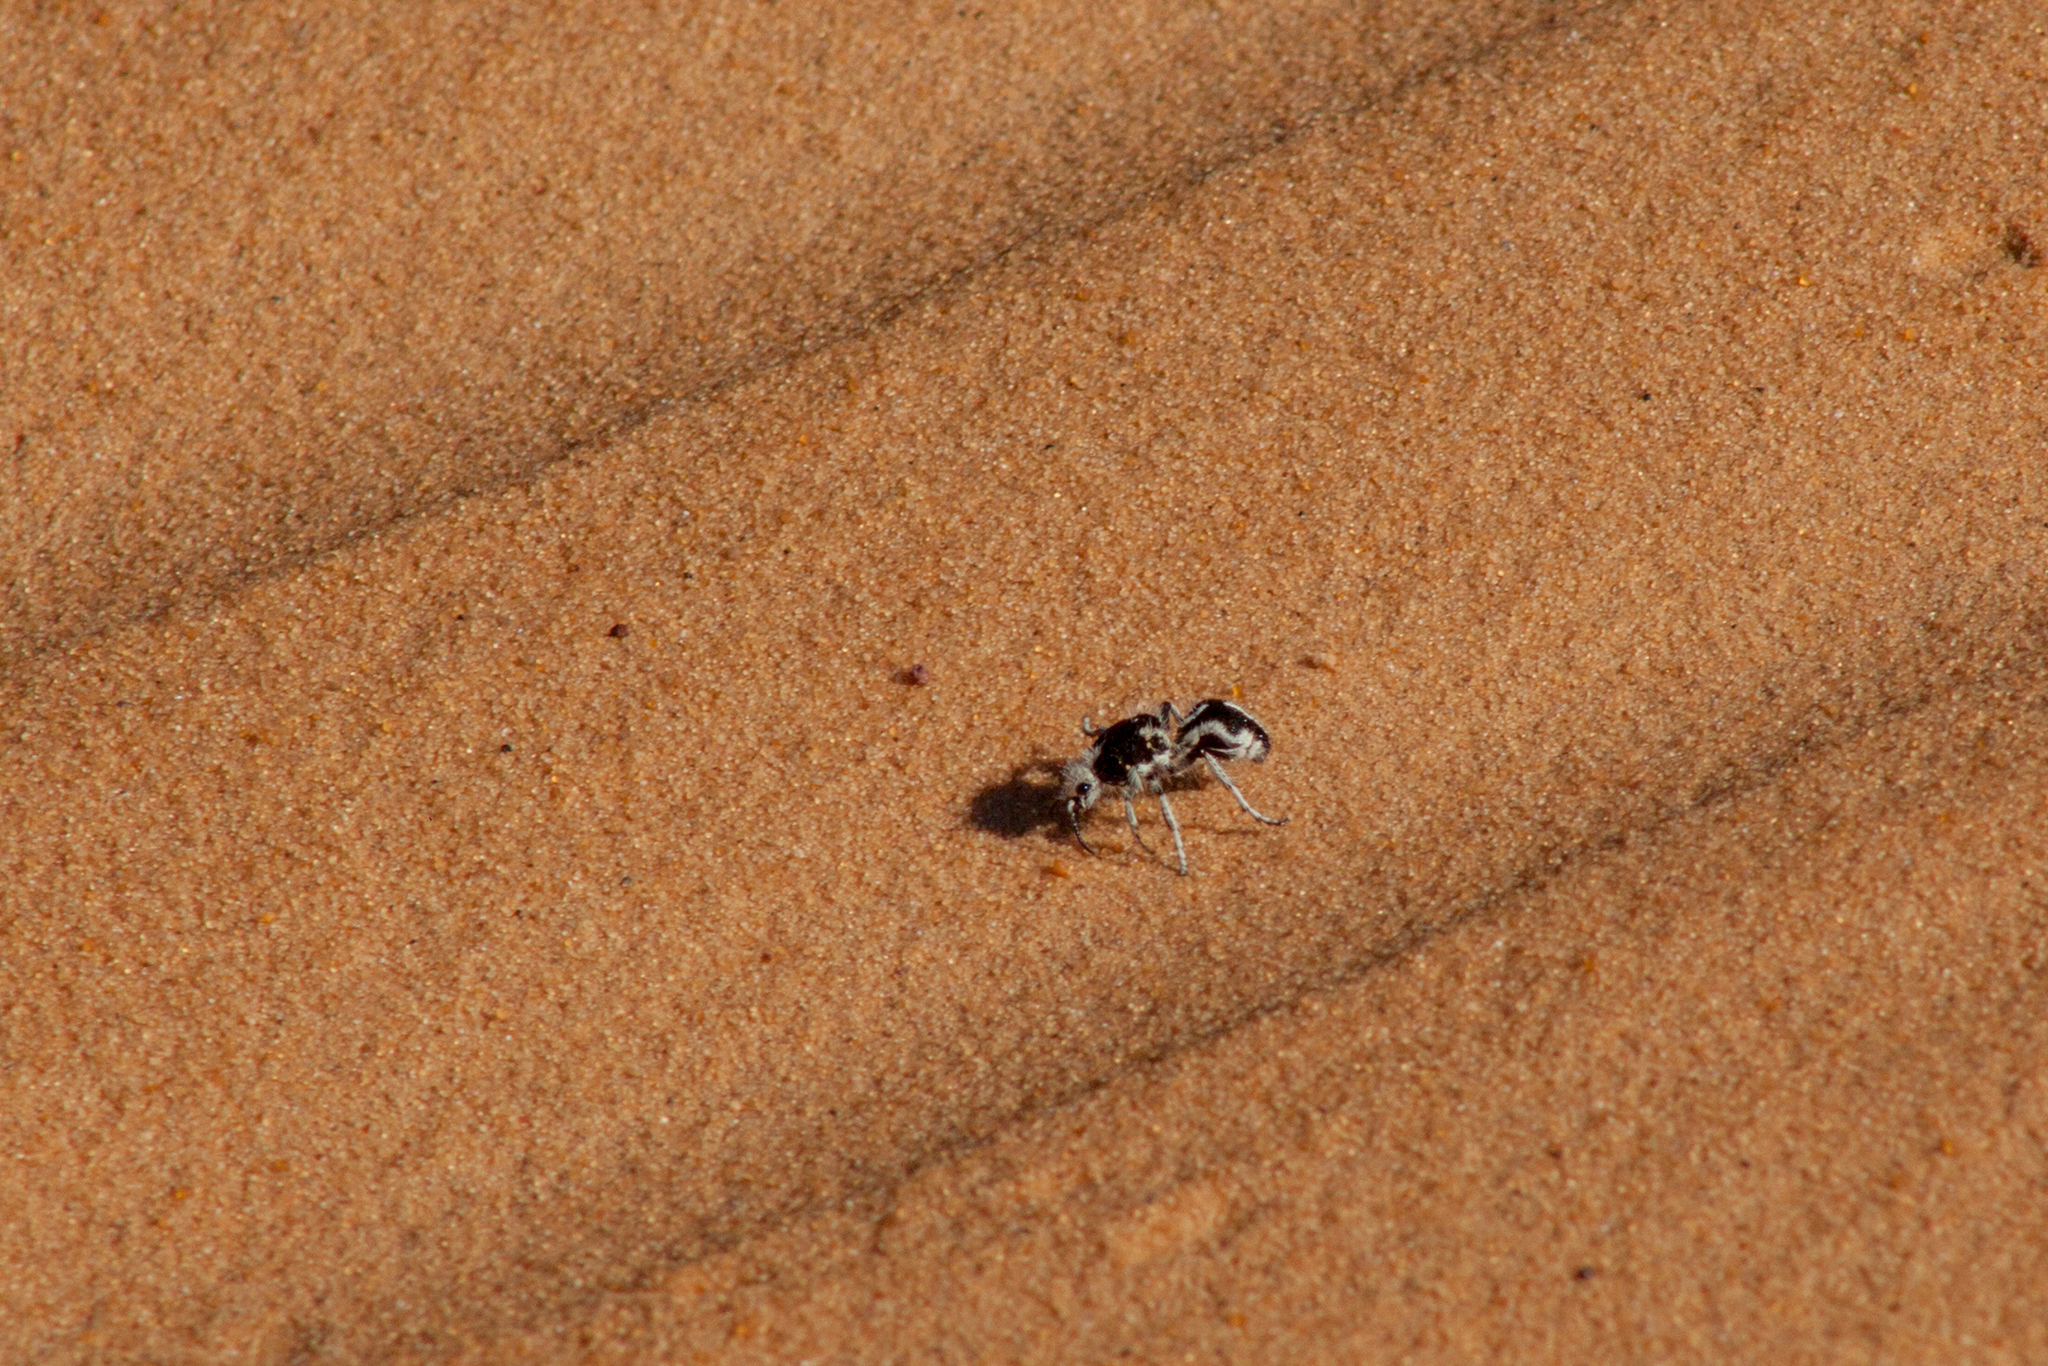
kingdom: Animalia
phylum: Arthropoda
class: Insecta
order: Hymenoptera
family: Mutillidae
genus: Leucospilomutilla
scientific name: Leucospilomutilla cerbera
